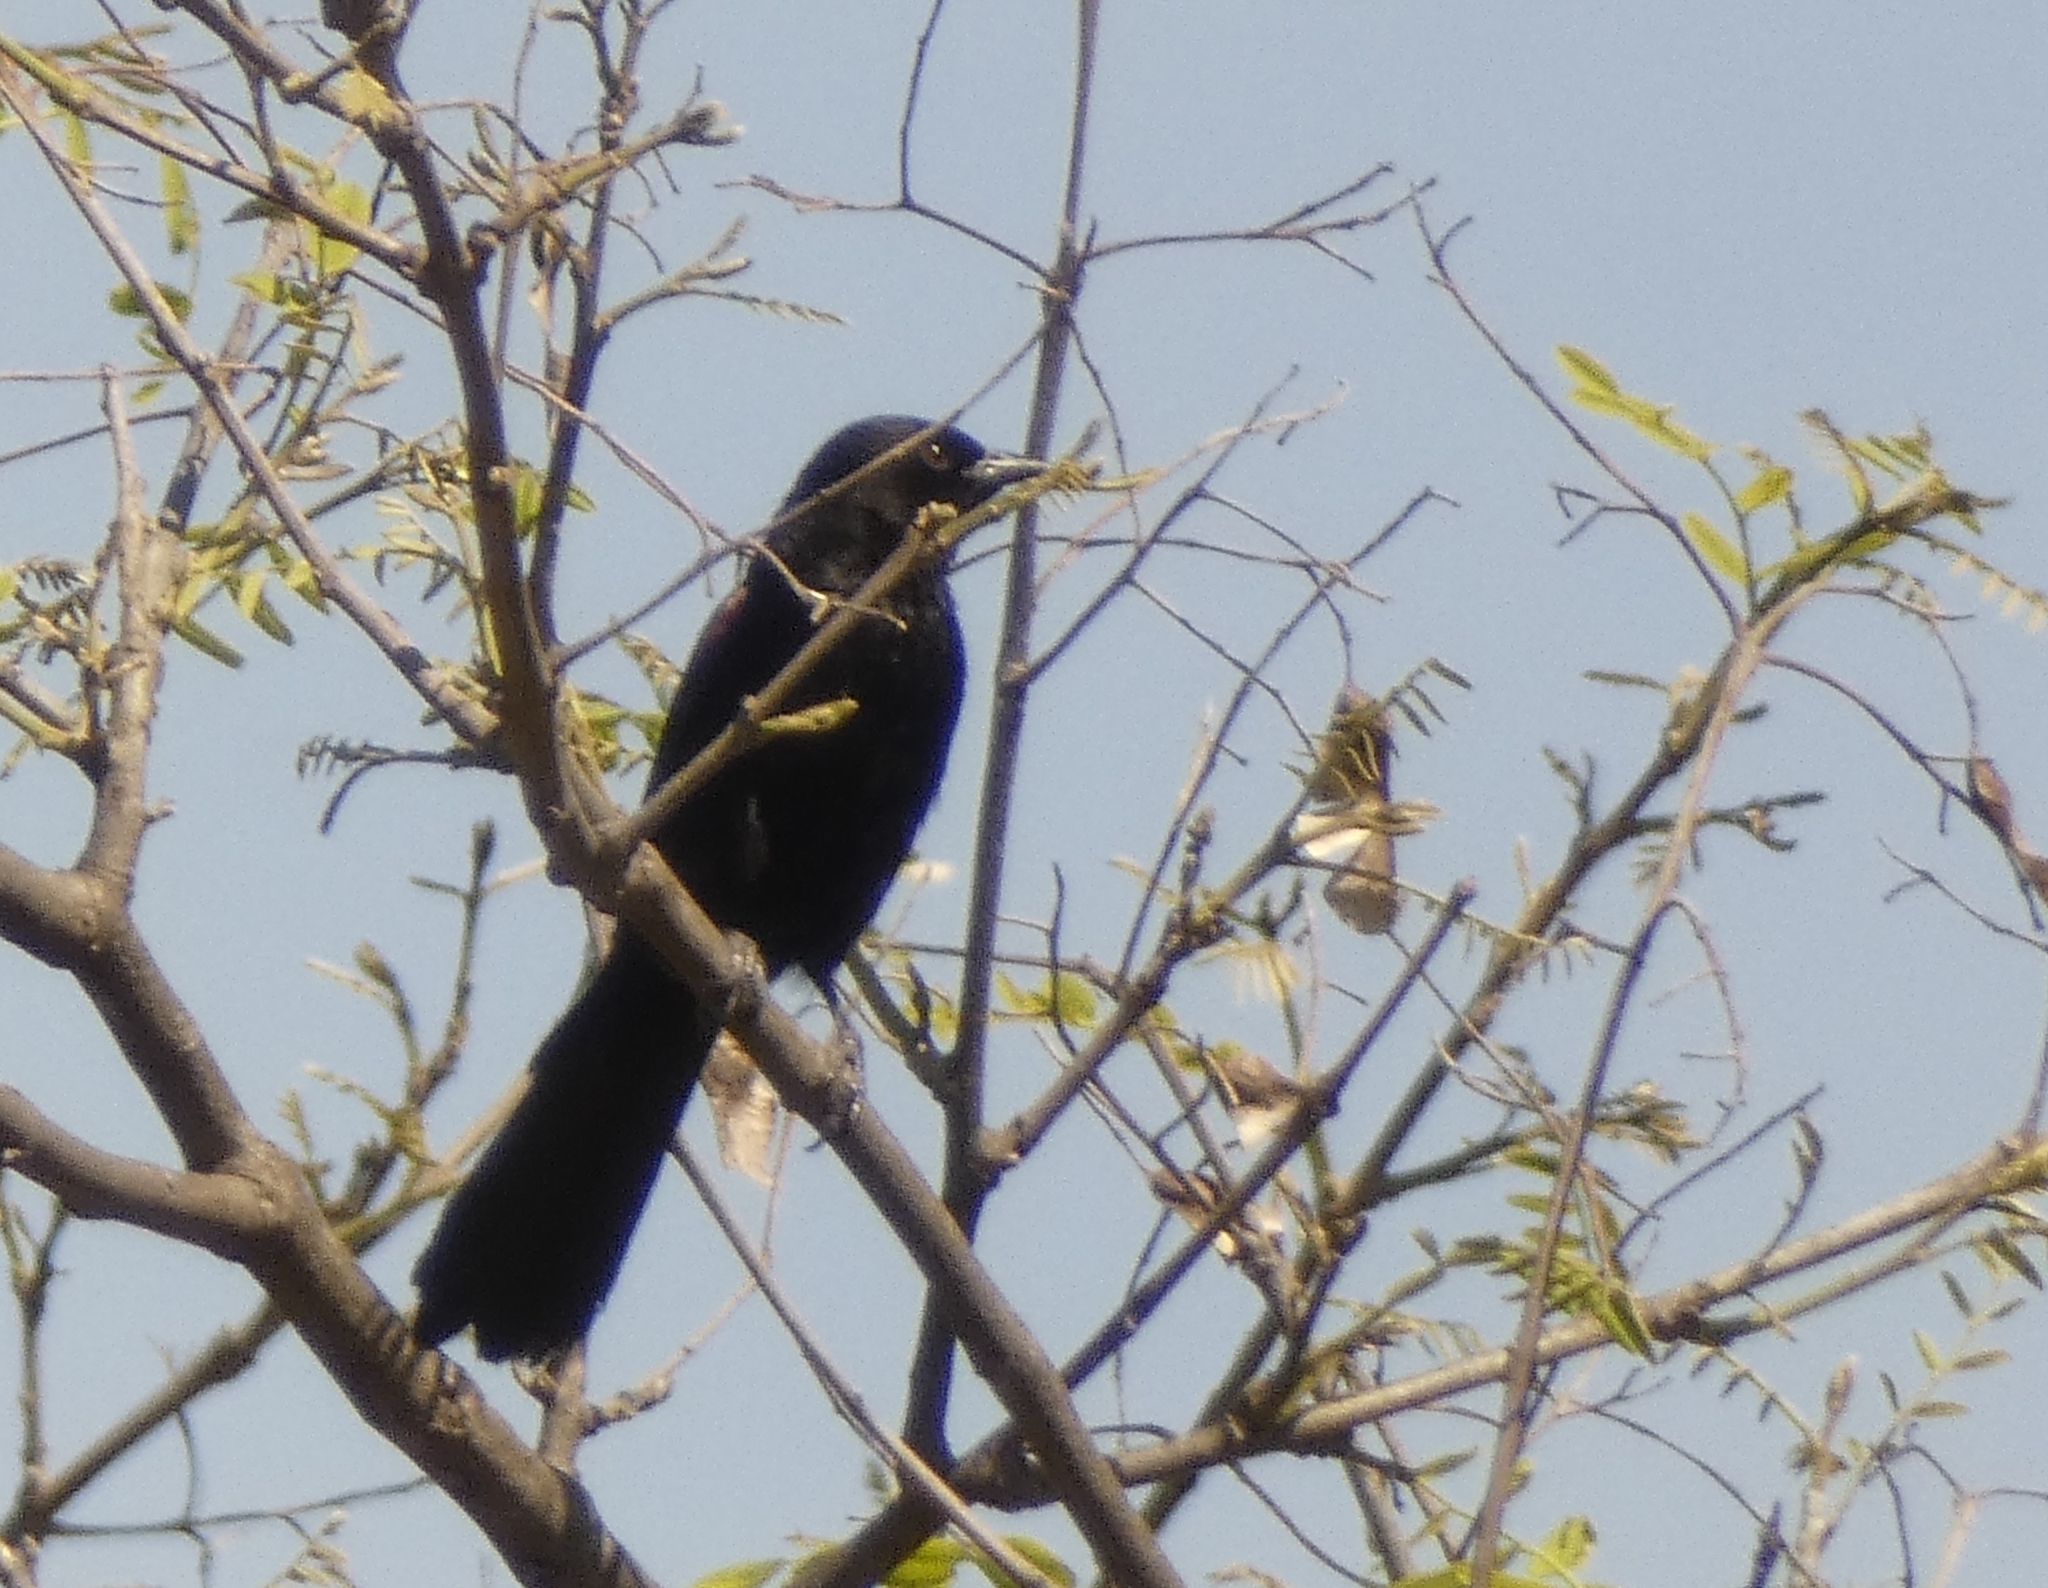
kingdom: Animalia
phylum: Chordata
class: Aves
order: Passeriformes
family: Icteridae
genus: Icterus
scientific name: Icterus cayanensis
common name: Epaulet oriole
